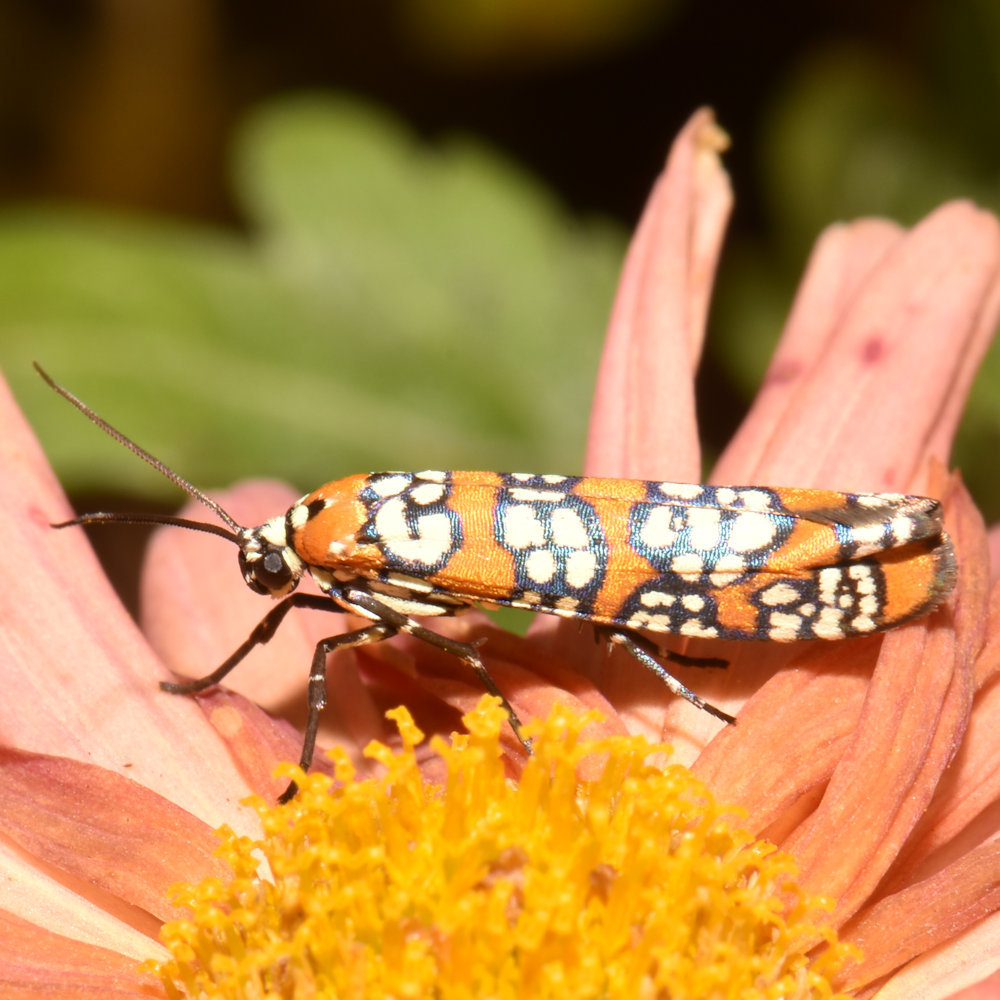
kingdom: Animalia
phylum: Arthropoda
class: Insecta
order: Lepidoptera
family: Attevidae
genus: Atteva
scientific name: Atteva punctella
